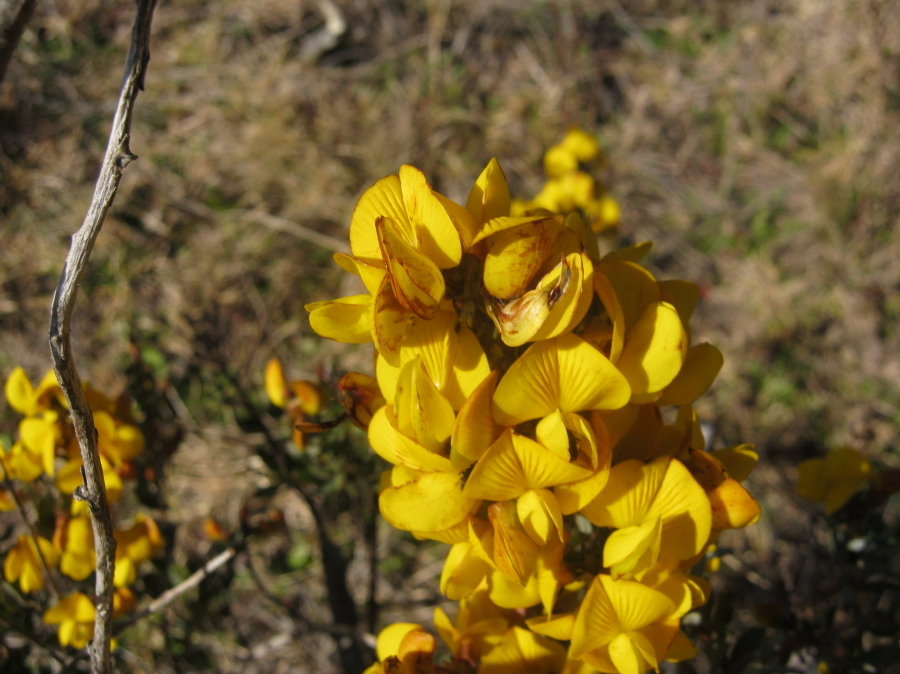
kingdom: Plantae
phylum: Tracheophyta
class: Magnoliopsida
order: Fabales
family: Fabaceae
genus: Cyclopia
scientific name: Cyclopia intermedia
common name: Mountain tea
